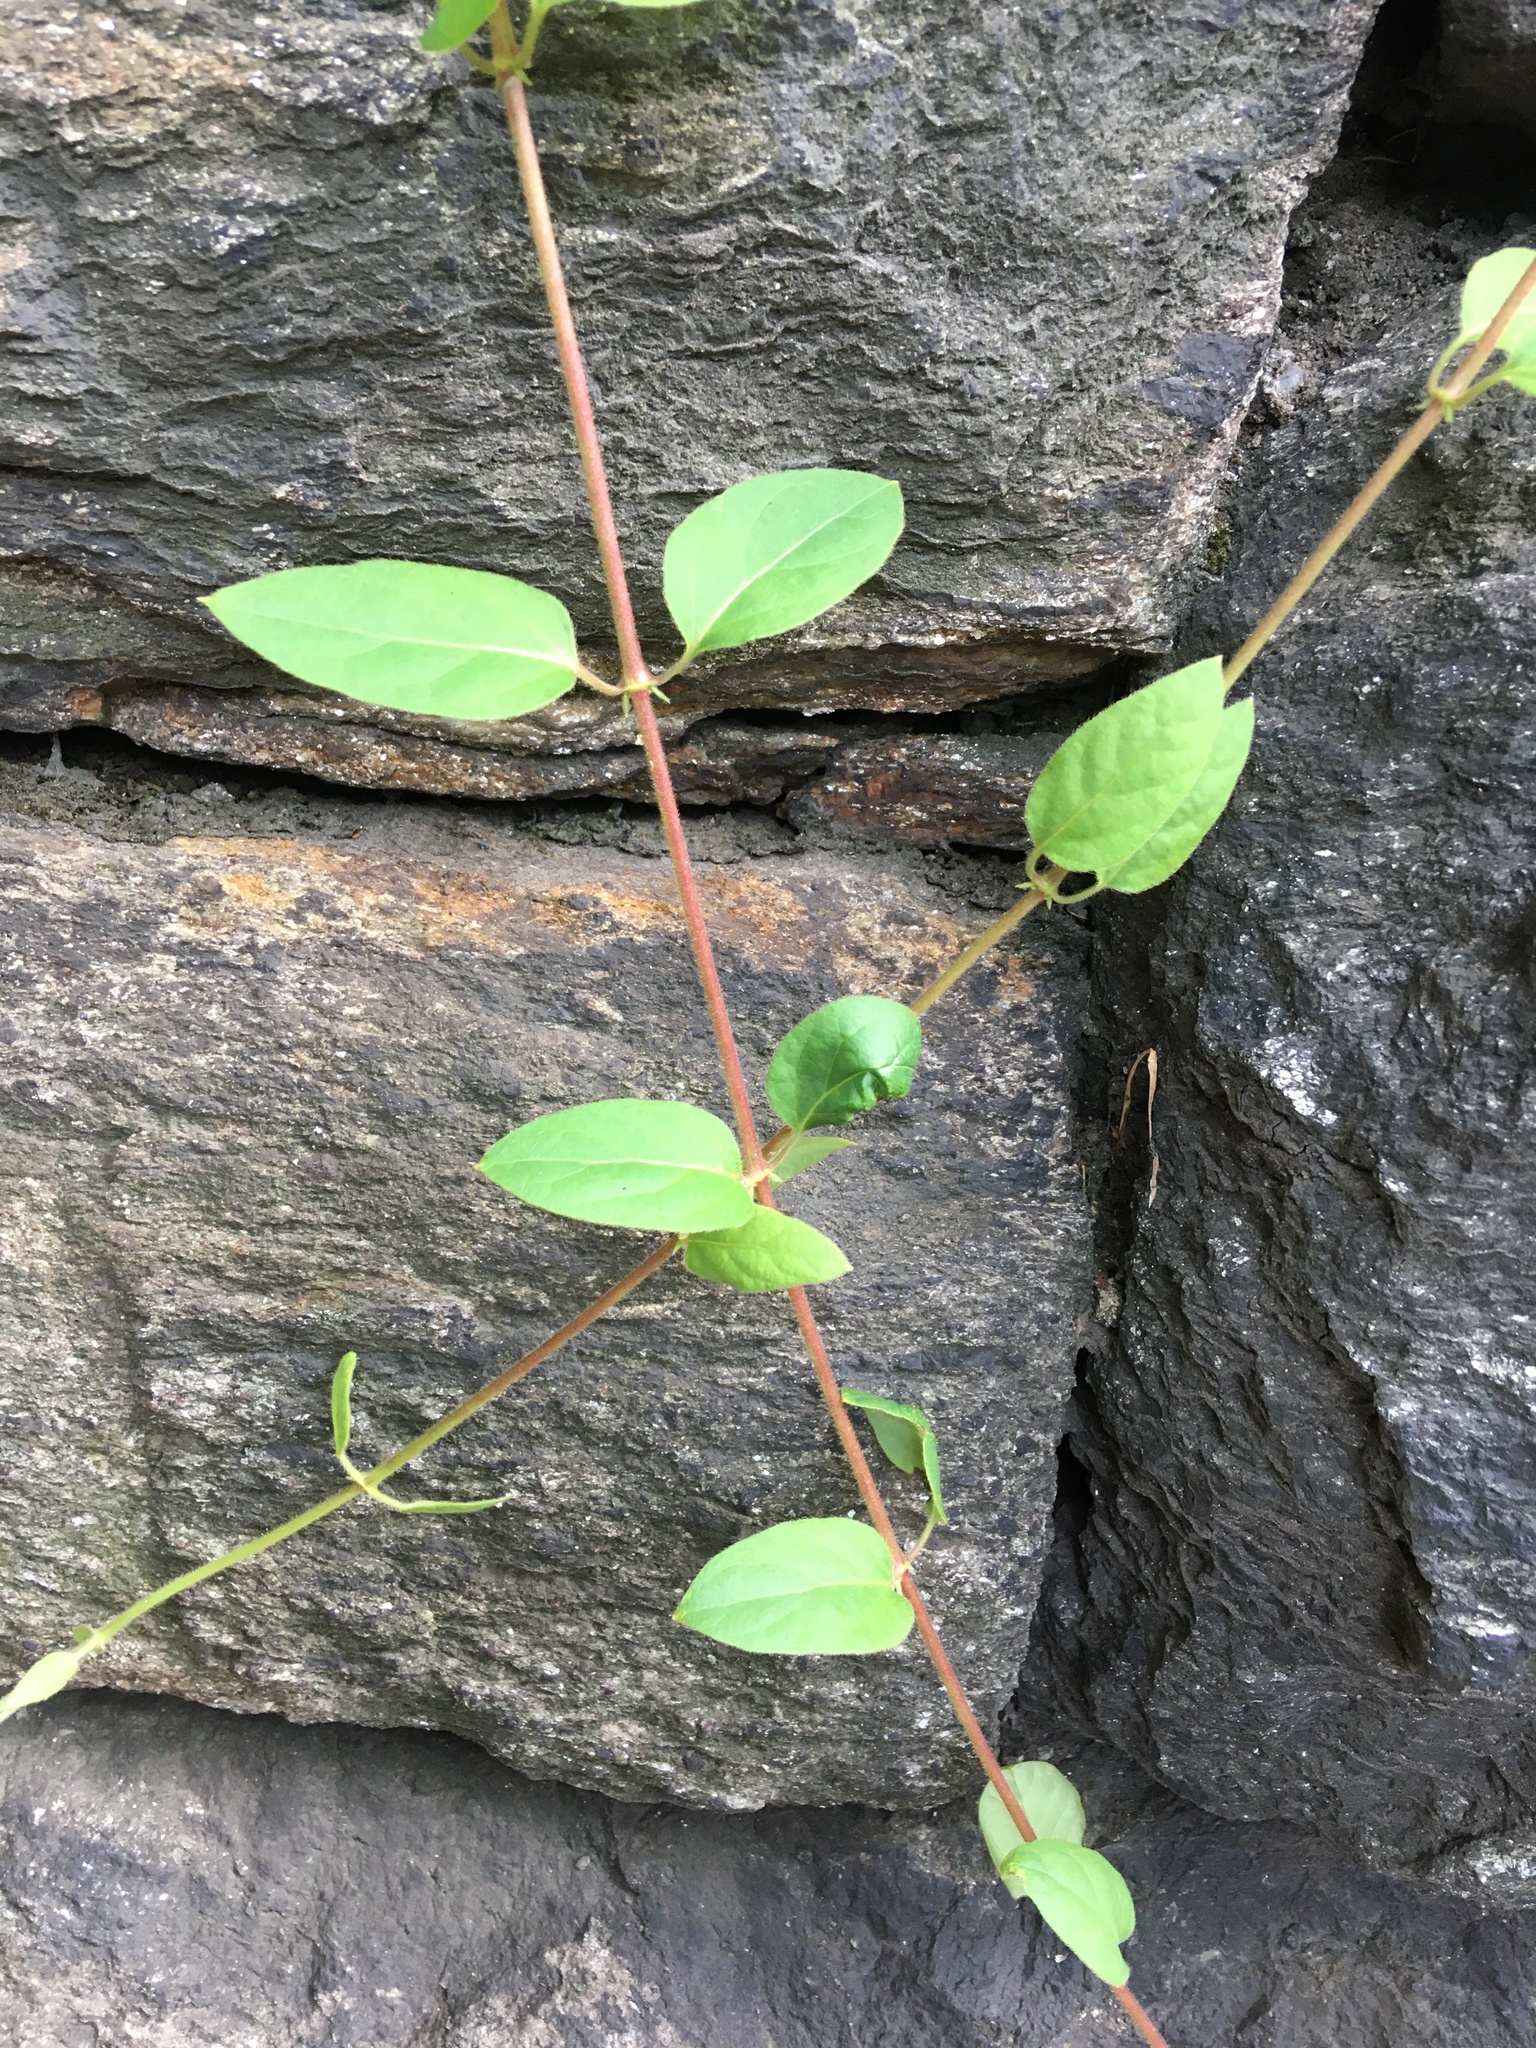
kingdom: Plantae
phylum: Tracheophyta
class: Magnoliopsida
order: Dipsacales
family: Caprifoliaceae
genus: Lonicera
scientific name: Lonicera japonica
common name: Japanese honeysuckle
